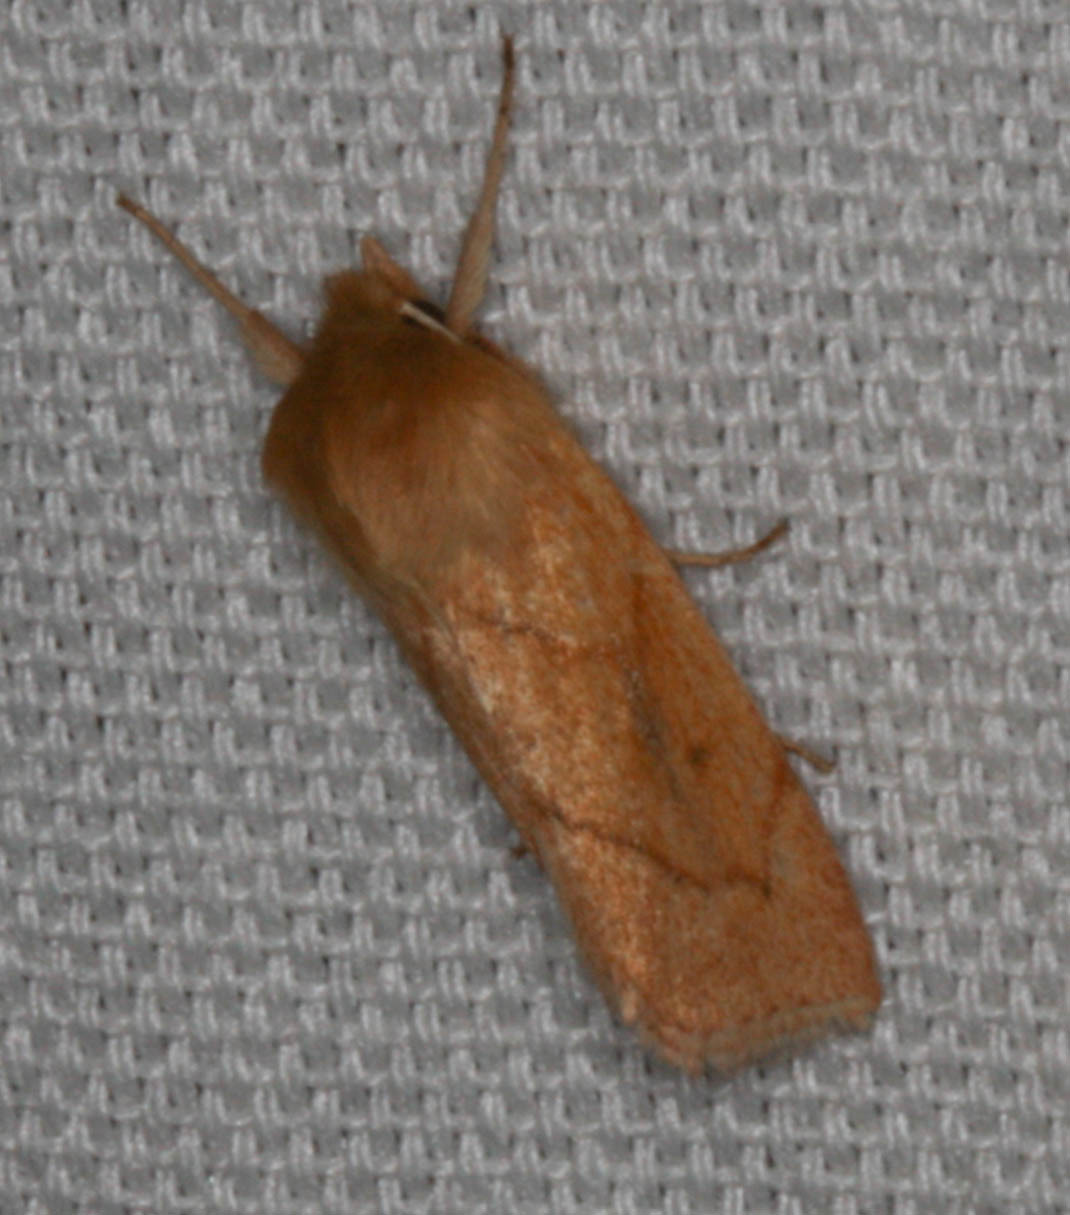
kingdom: Animalia
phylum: Arthropoda
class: Insecta
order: Lepidoptera
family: Noctuidae
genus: Zosteropoda
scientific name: Zosteropoda hirtipes
